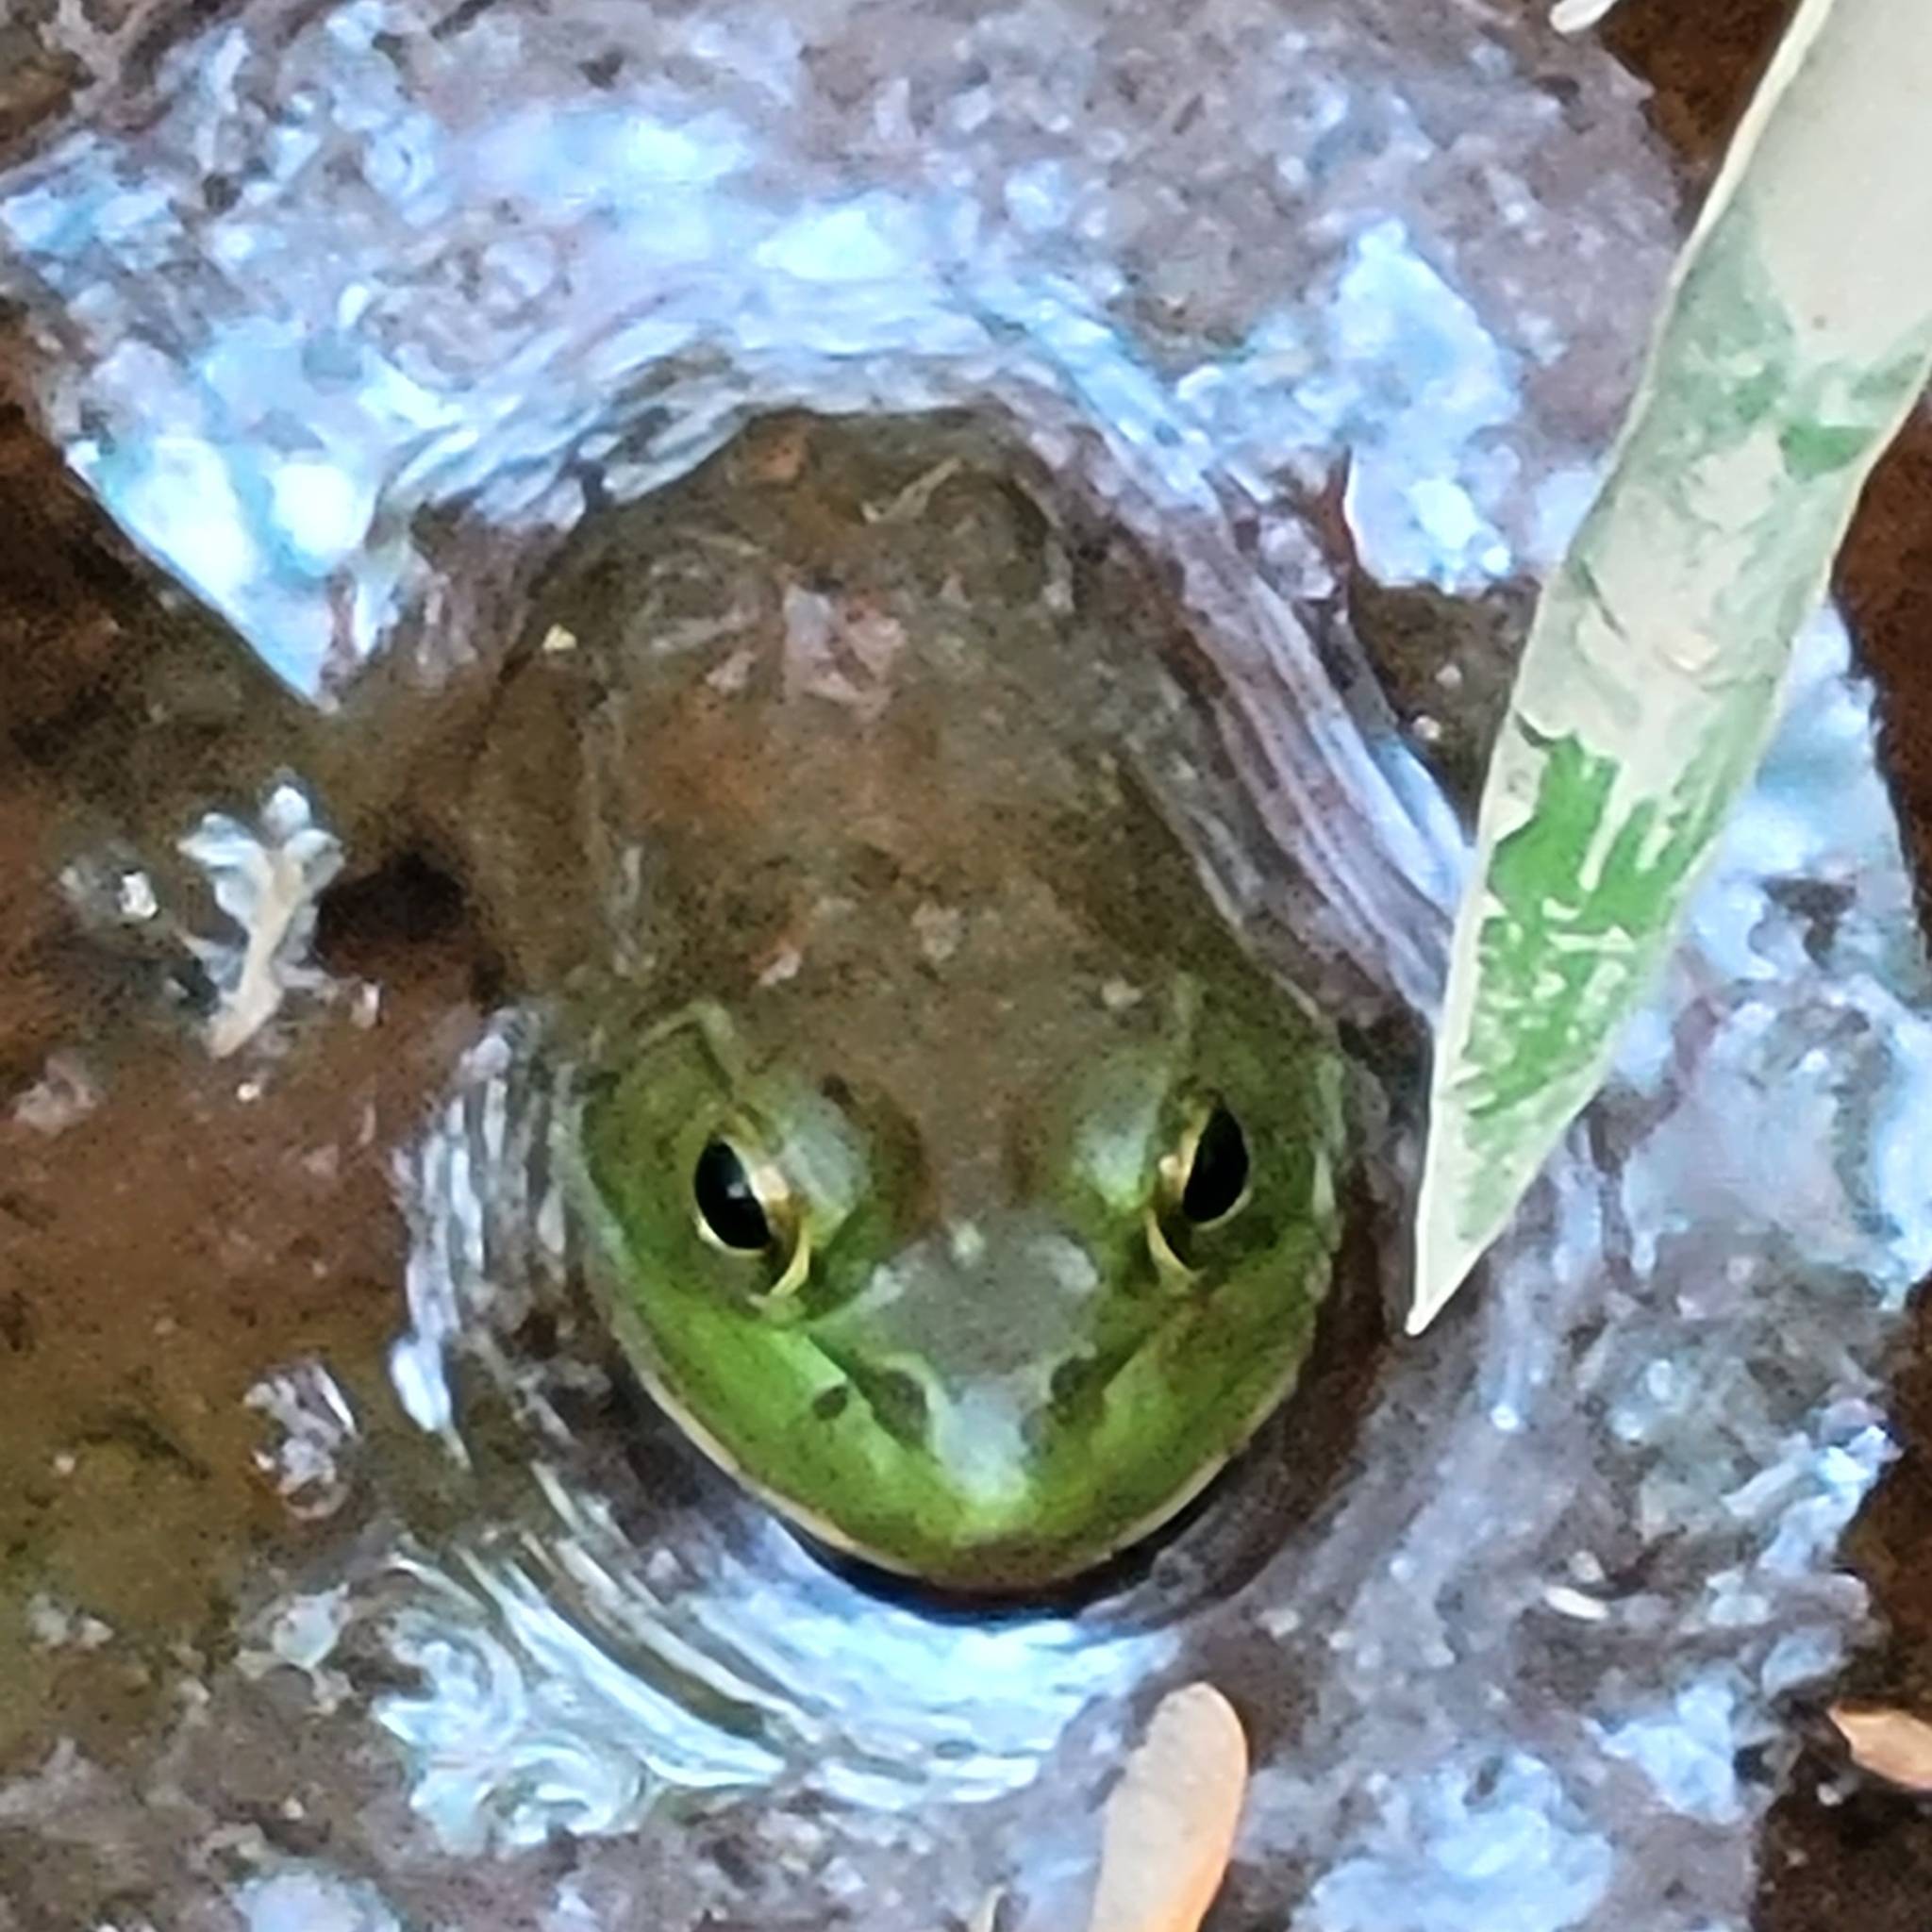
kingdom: Animalia
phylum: Chordata
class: Amphibia
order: Anura
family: Ranidae
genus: Lithobates
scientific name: Lithobates catesbeianus
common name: American bullfrog
